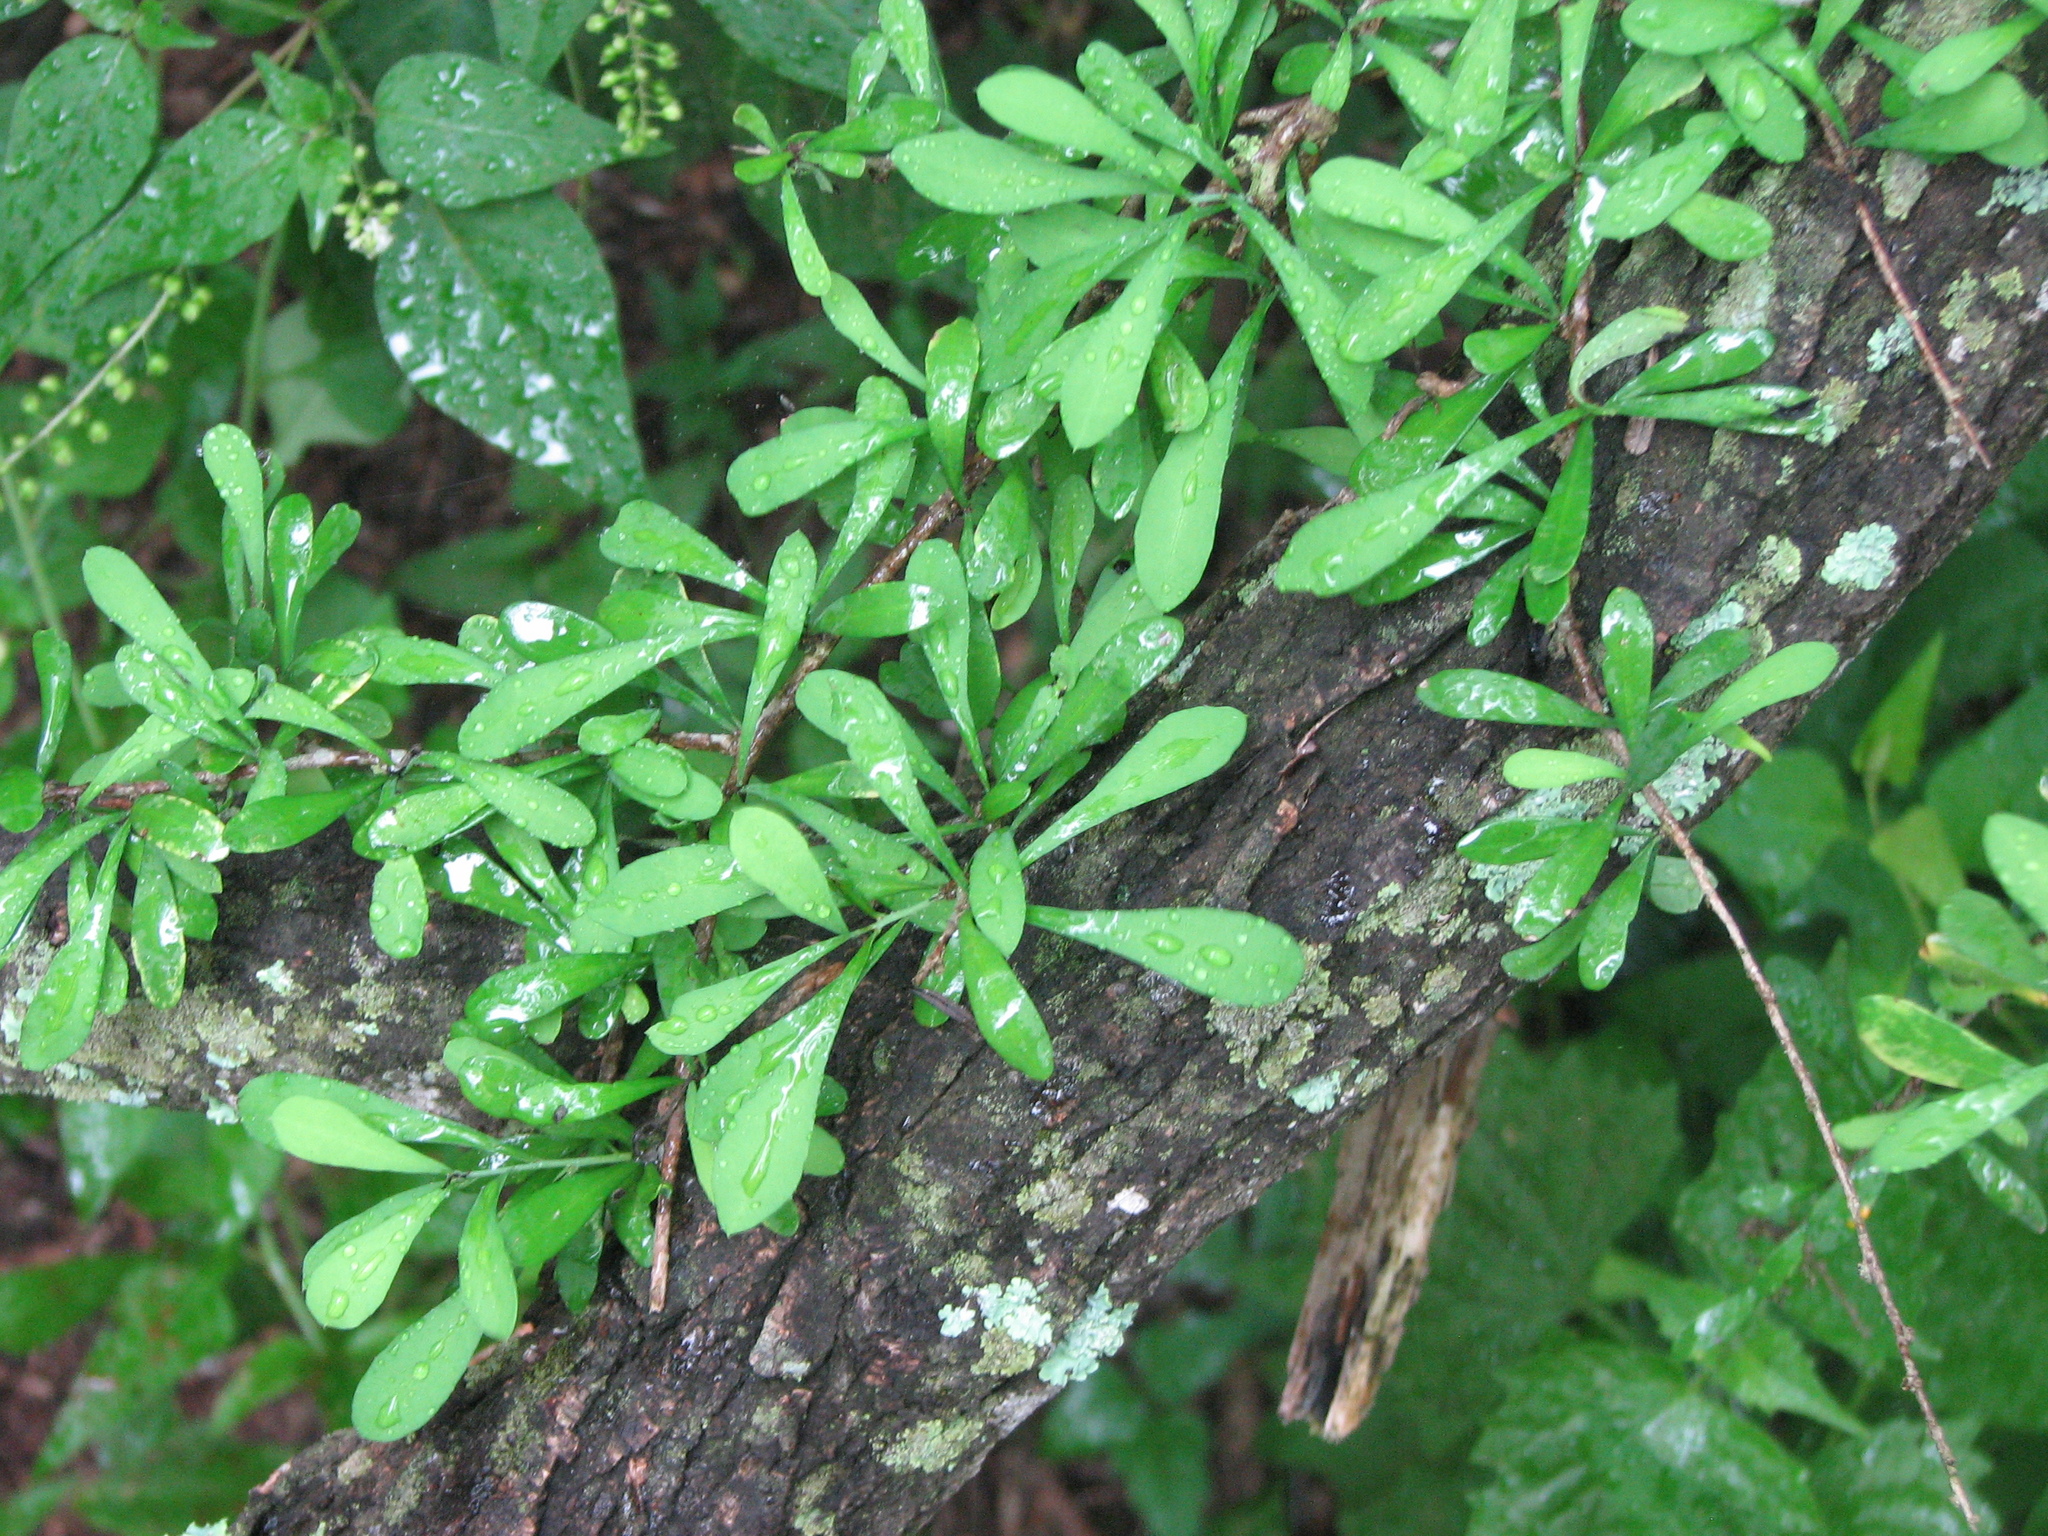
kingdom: Plantae
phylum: Tracheophyta
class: Magnoliopsida
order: Caryophyllales
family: Achatocarpaceae
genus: Phaulothamnus
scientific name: Phaulothamnus spinescens
